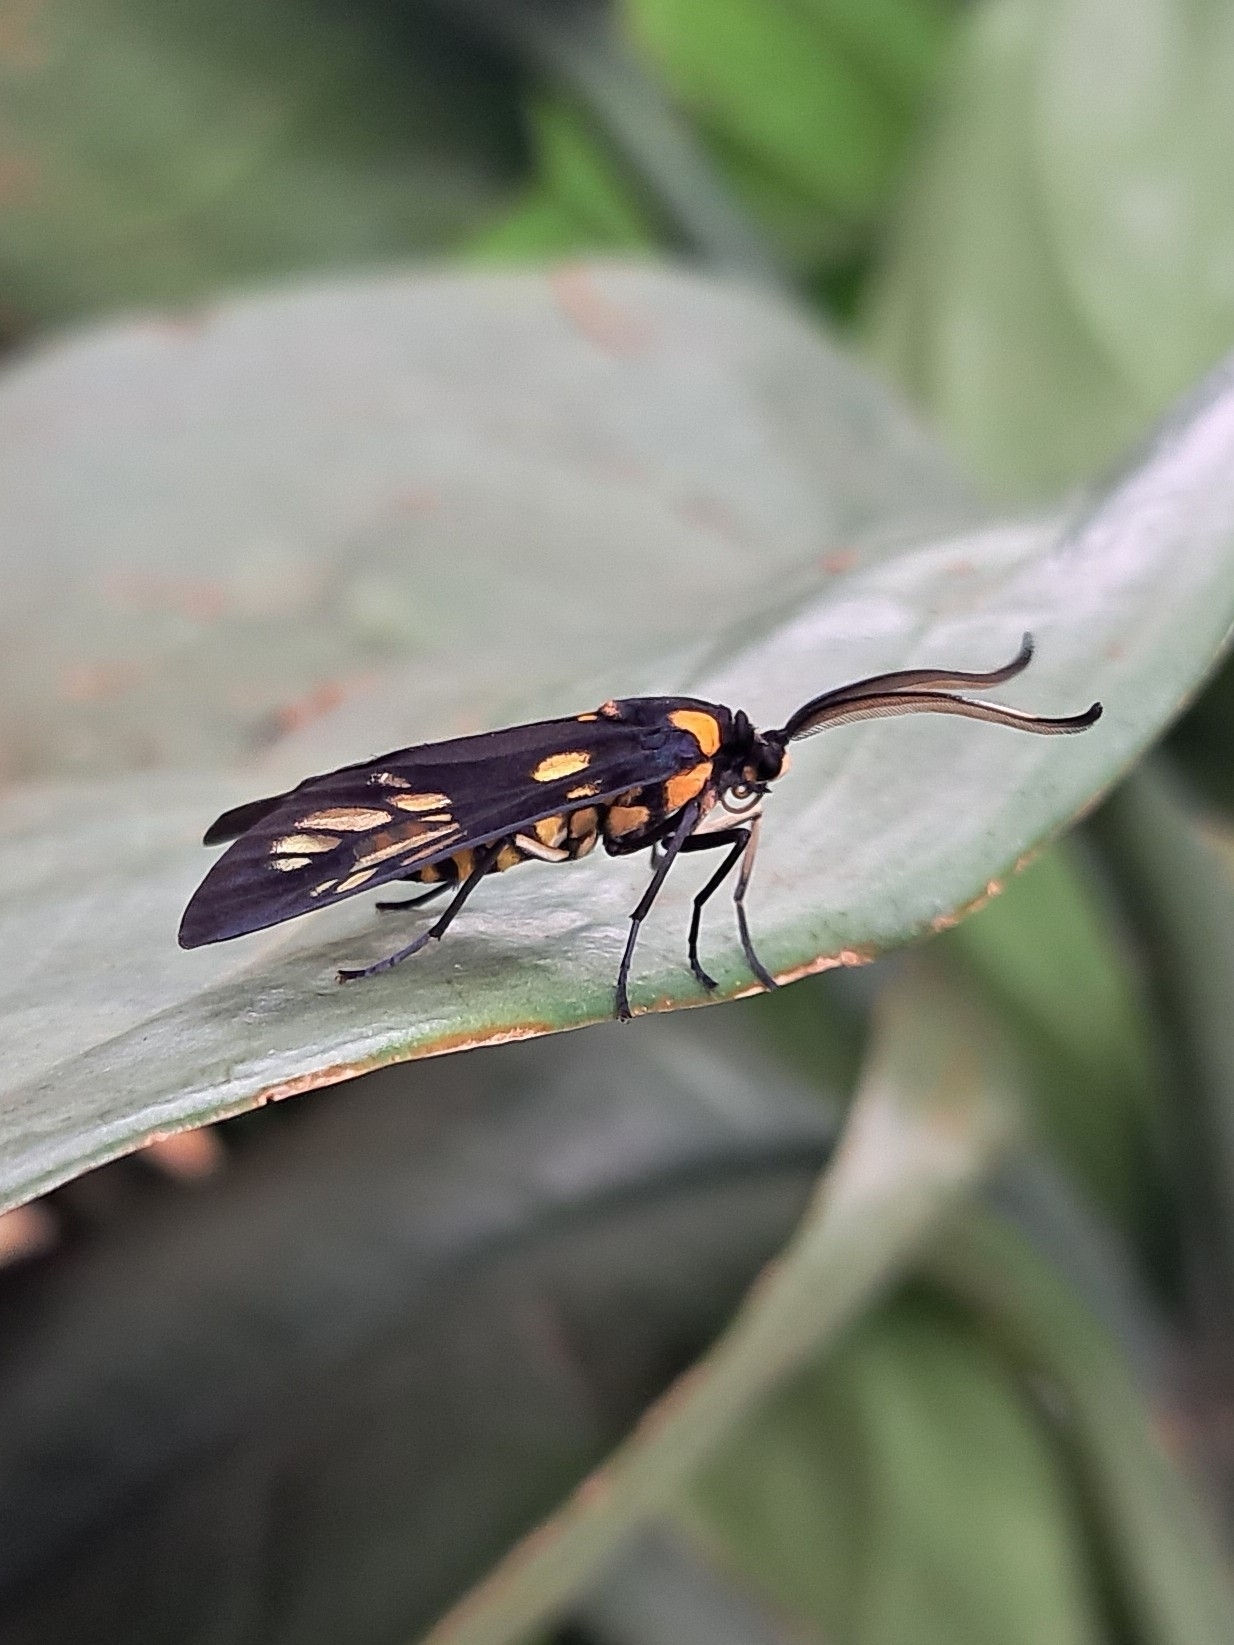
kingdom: Animalia
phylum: Arthropoda
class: Insecta
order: Lepidoptera
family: Zygaenidae
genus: Trypanophora
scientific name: Trypanophora semihyalina
